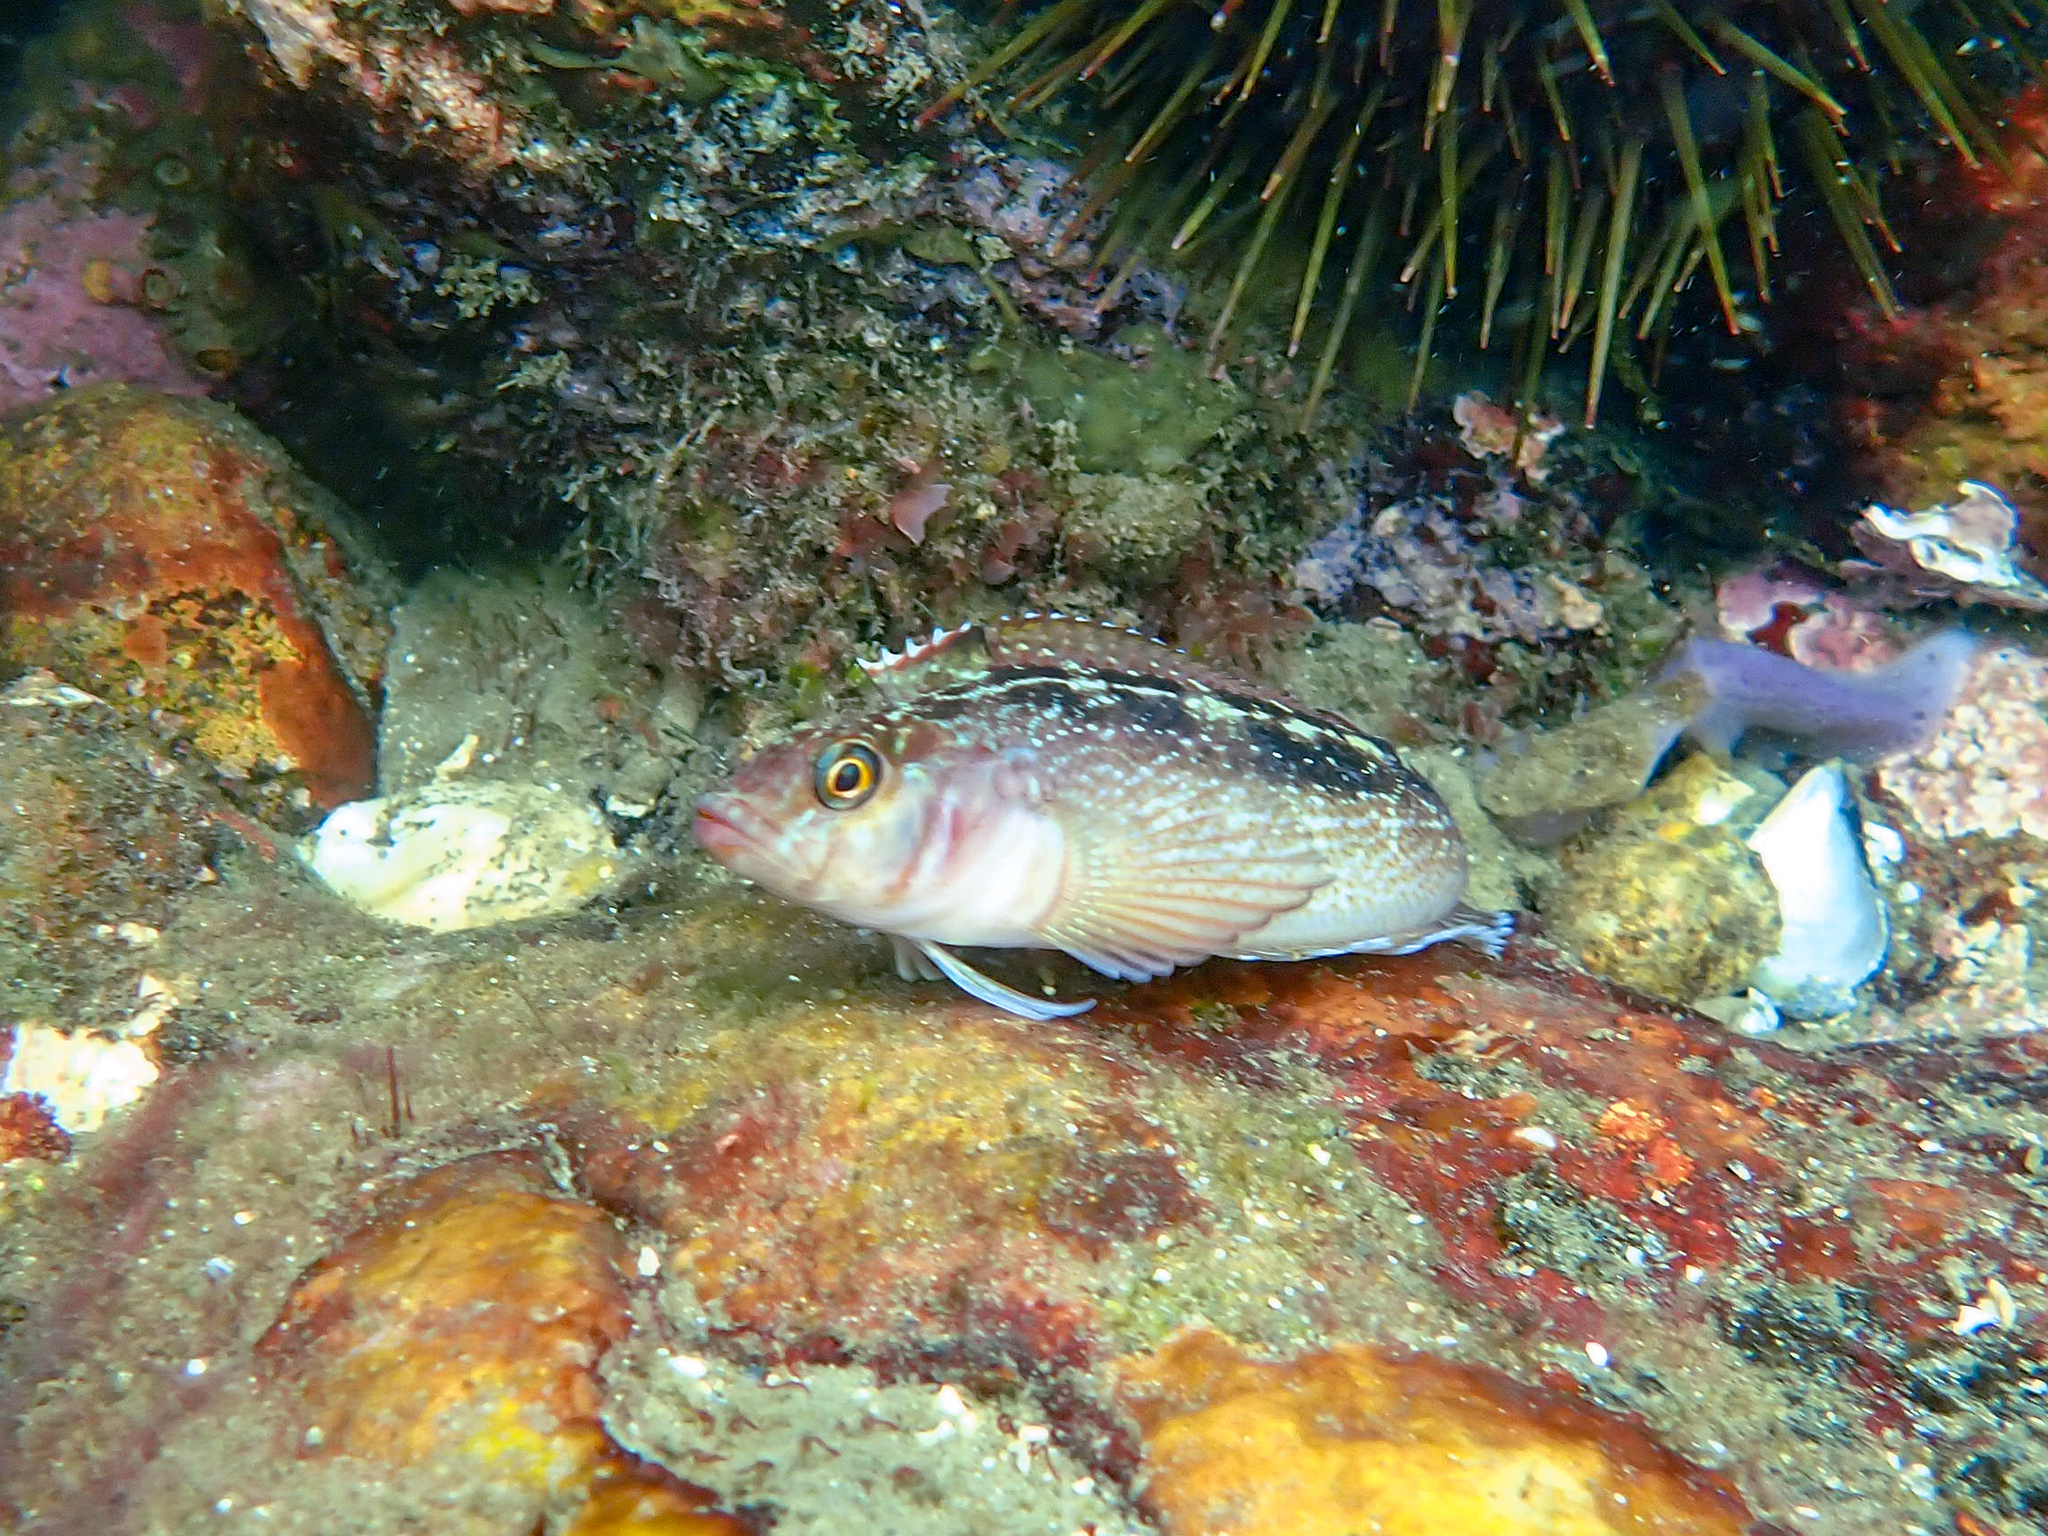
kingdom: Animalia
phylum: Chordata
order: Perciformes
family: Tripterygiidae
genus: Forsterygion
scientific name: Forsterygion varium
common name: Variable triplefin
